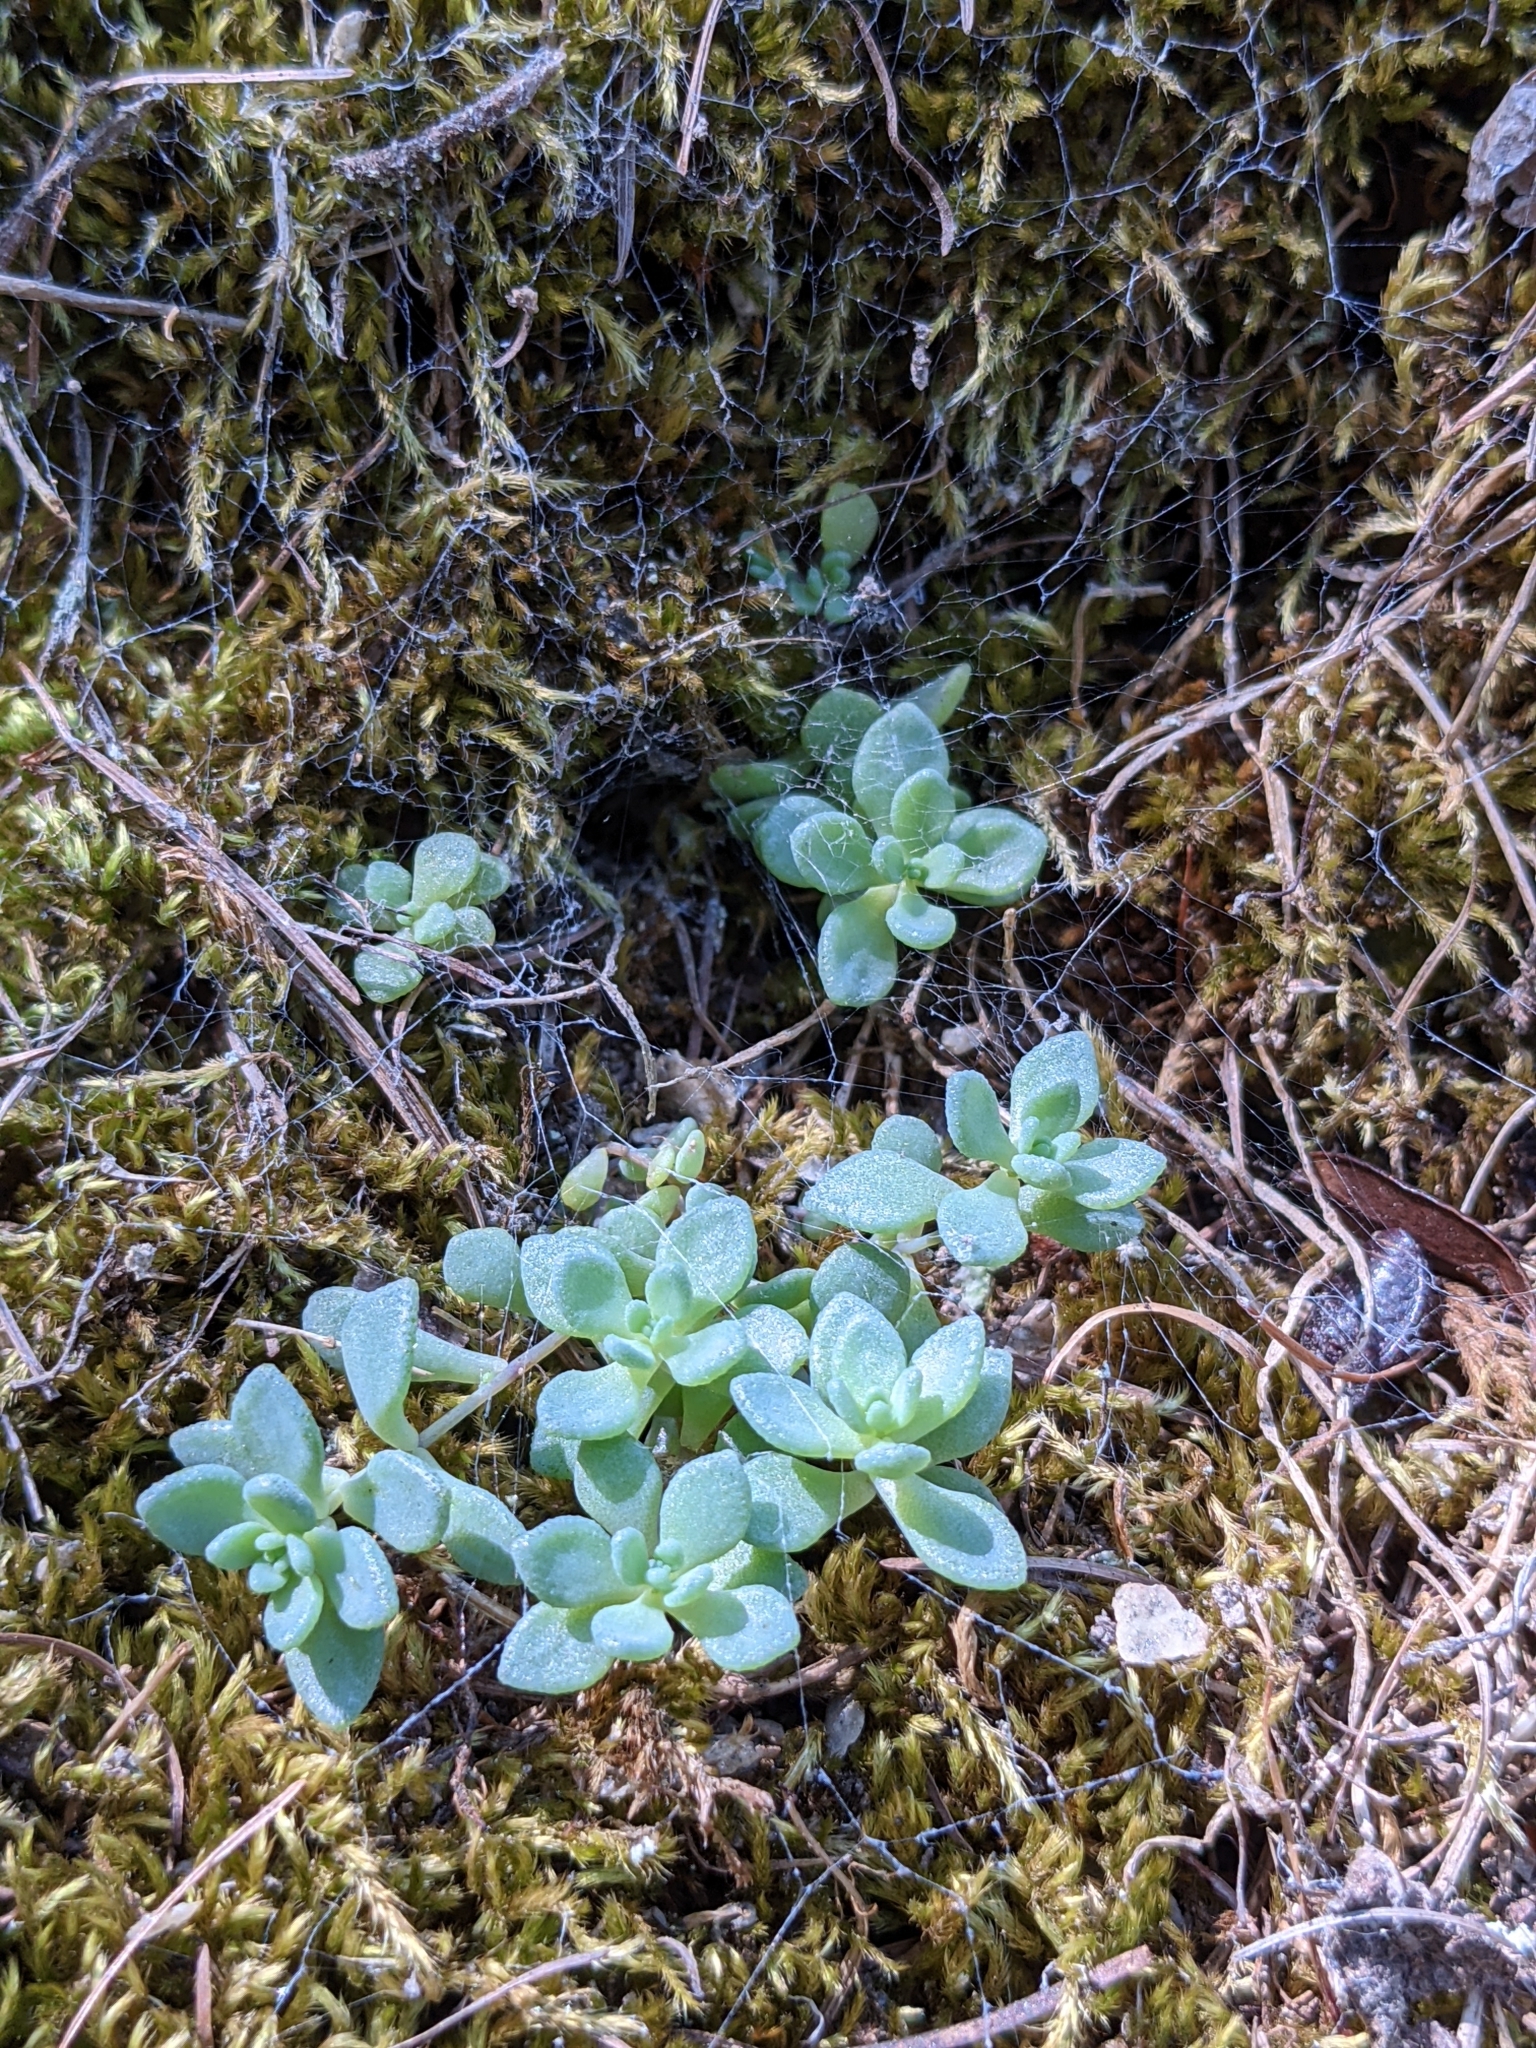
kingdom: Plantae
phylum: Tracheophyta
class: Magnoliopsida
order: Saxifragales
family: Crassulaceae
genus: Sedum
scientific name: Sedum dasyphyllum
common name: Thick-leaf stonecrop
